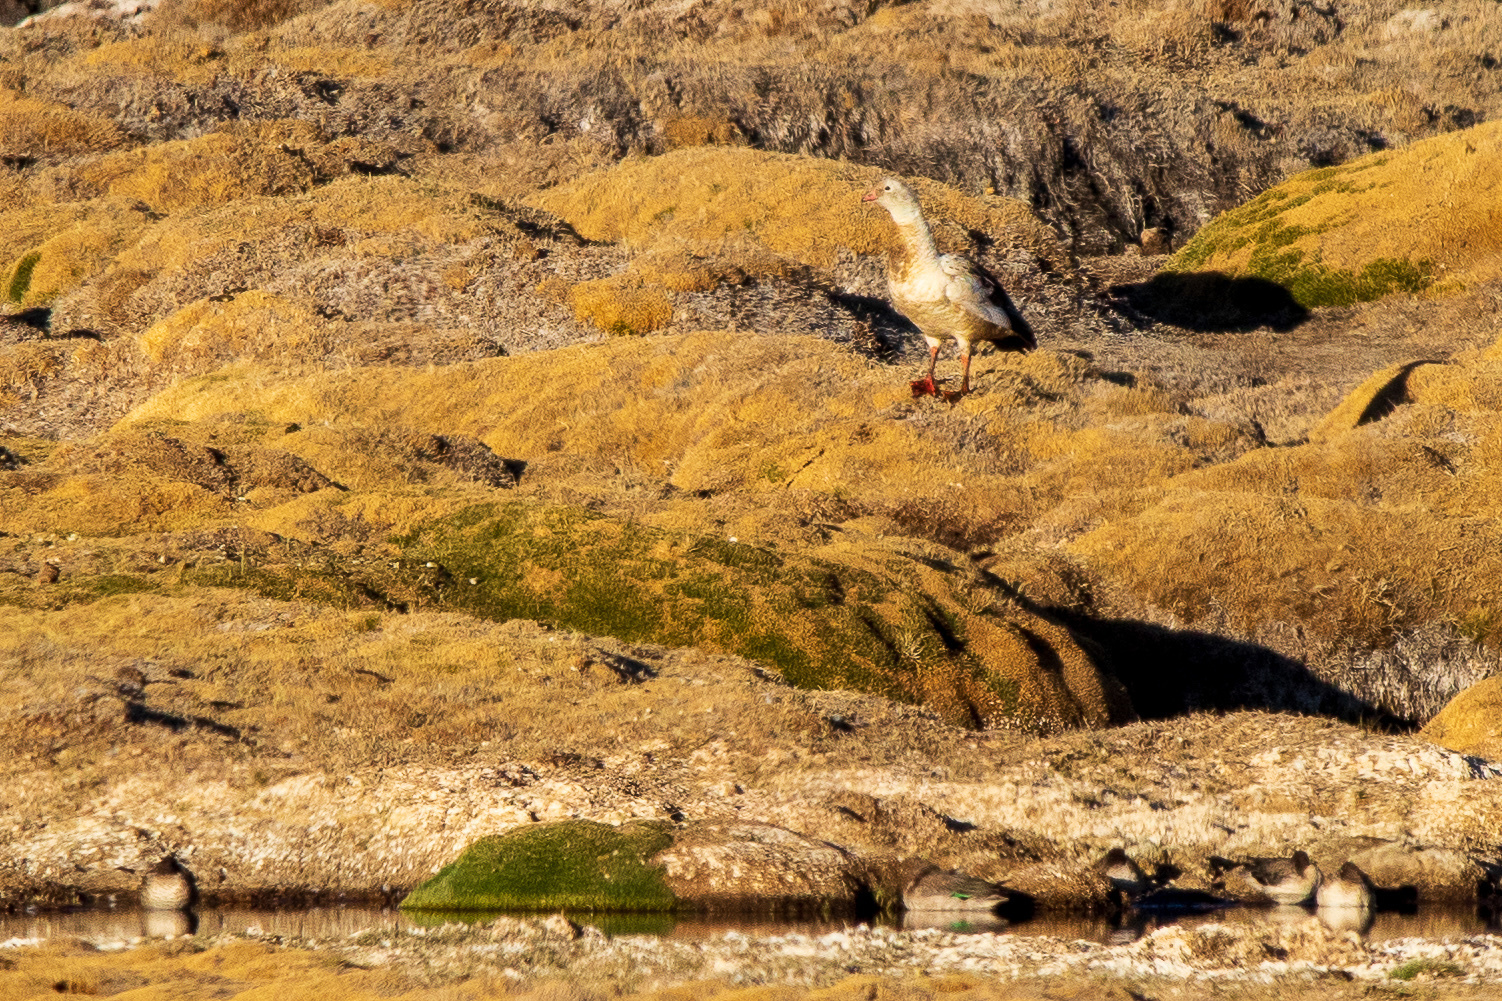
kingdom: Animalia
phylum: Chordata
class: Aves
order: Anseriformes
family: Anatidae
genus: Chloephaga
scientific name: Chloephaga melanoptera
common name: Andean goose
